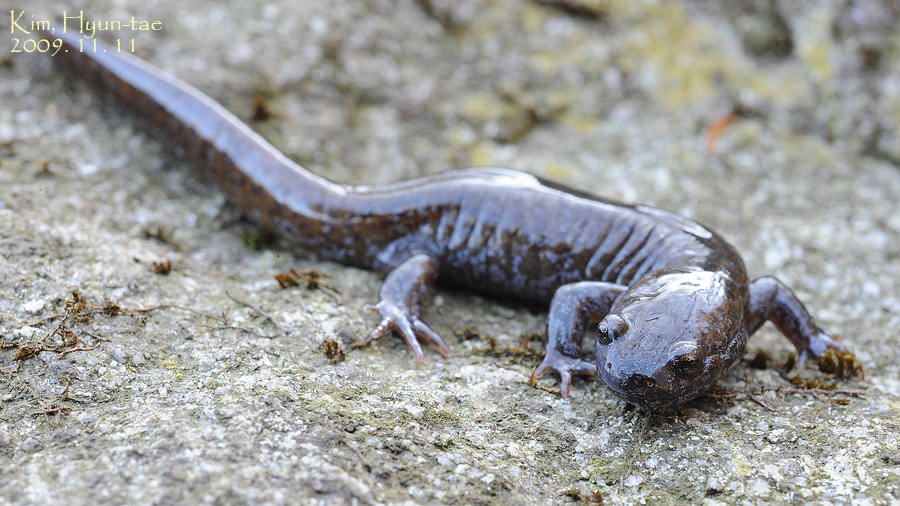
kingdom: Animalia
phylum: Chordata
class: Amphibia
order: Caudata
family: Hynobiidae
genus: Hynobius
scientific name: Hynobius leechii
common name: Gensan salamander
